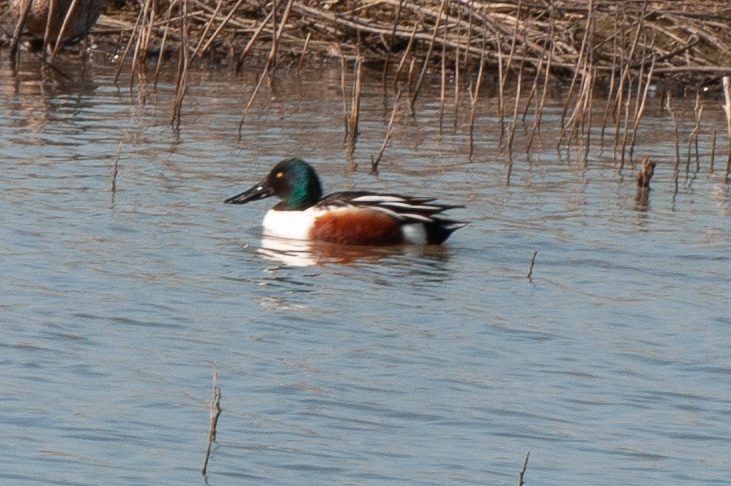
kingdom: Animalia
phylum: Chordata
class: Aves
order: Anseriformes
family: Anatidae
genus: Spatula
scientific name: Spatula clypeata
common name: Northern shoveler
